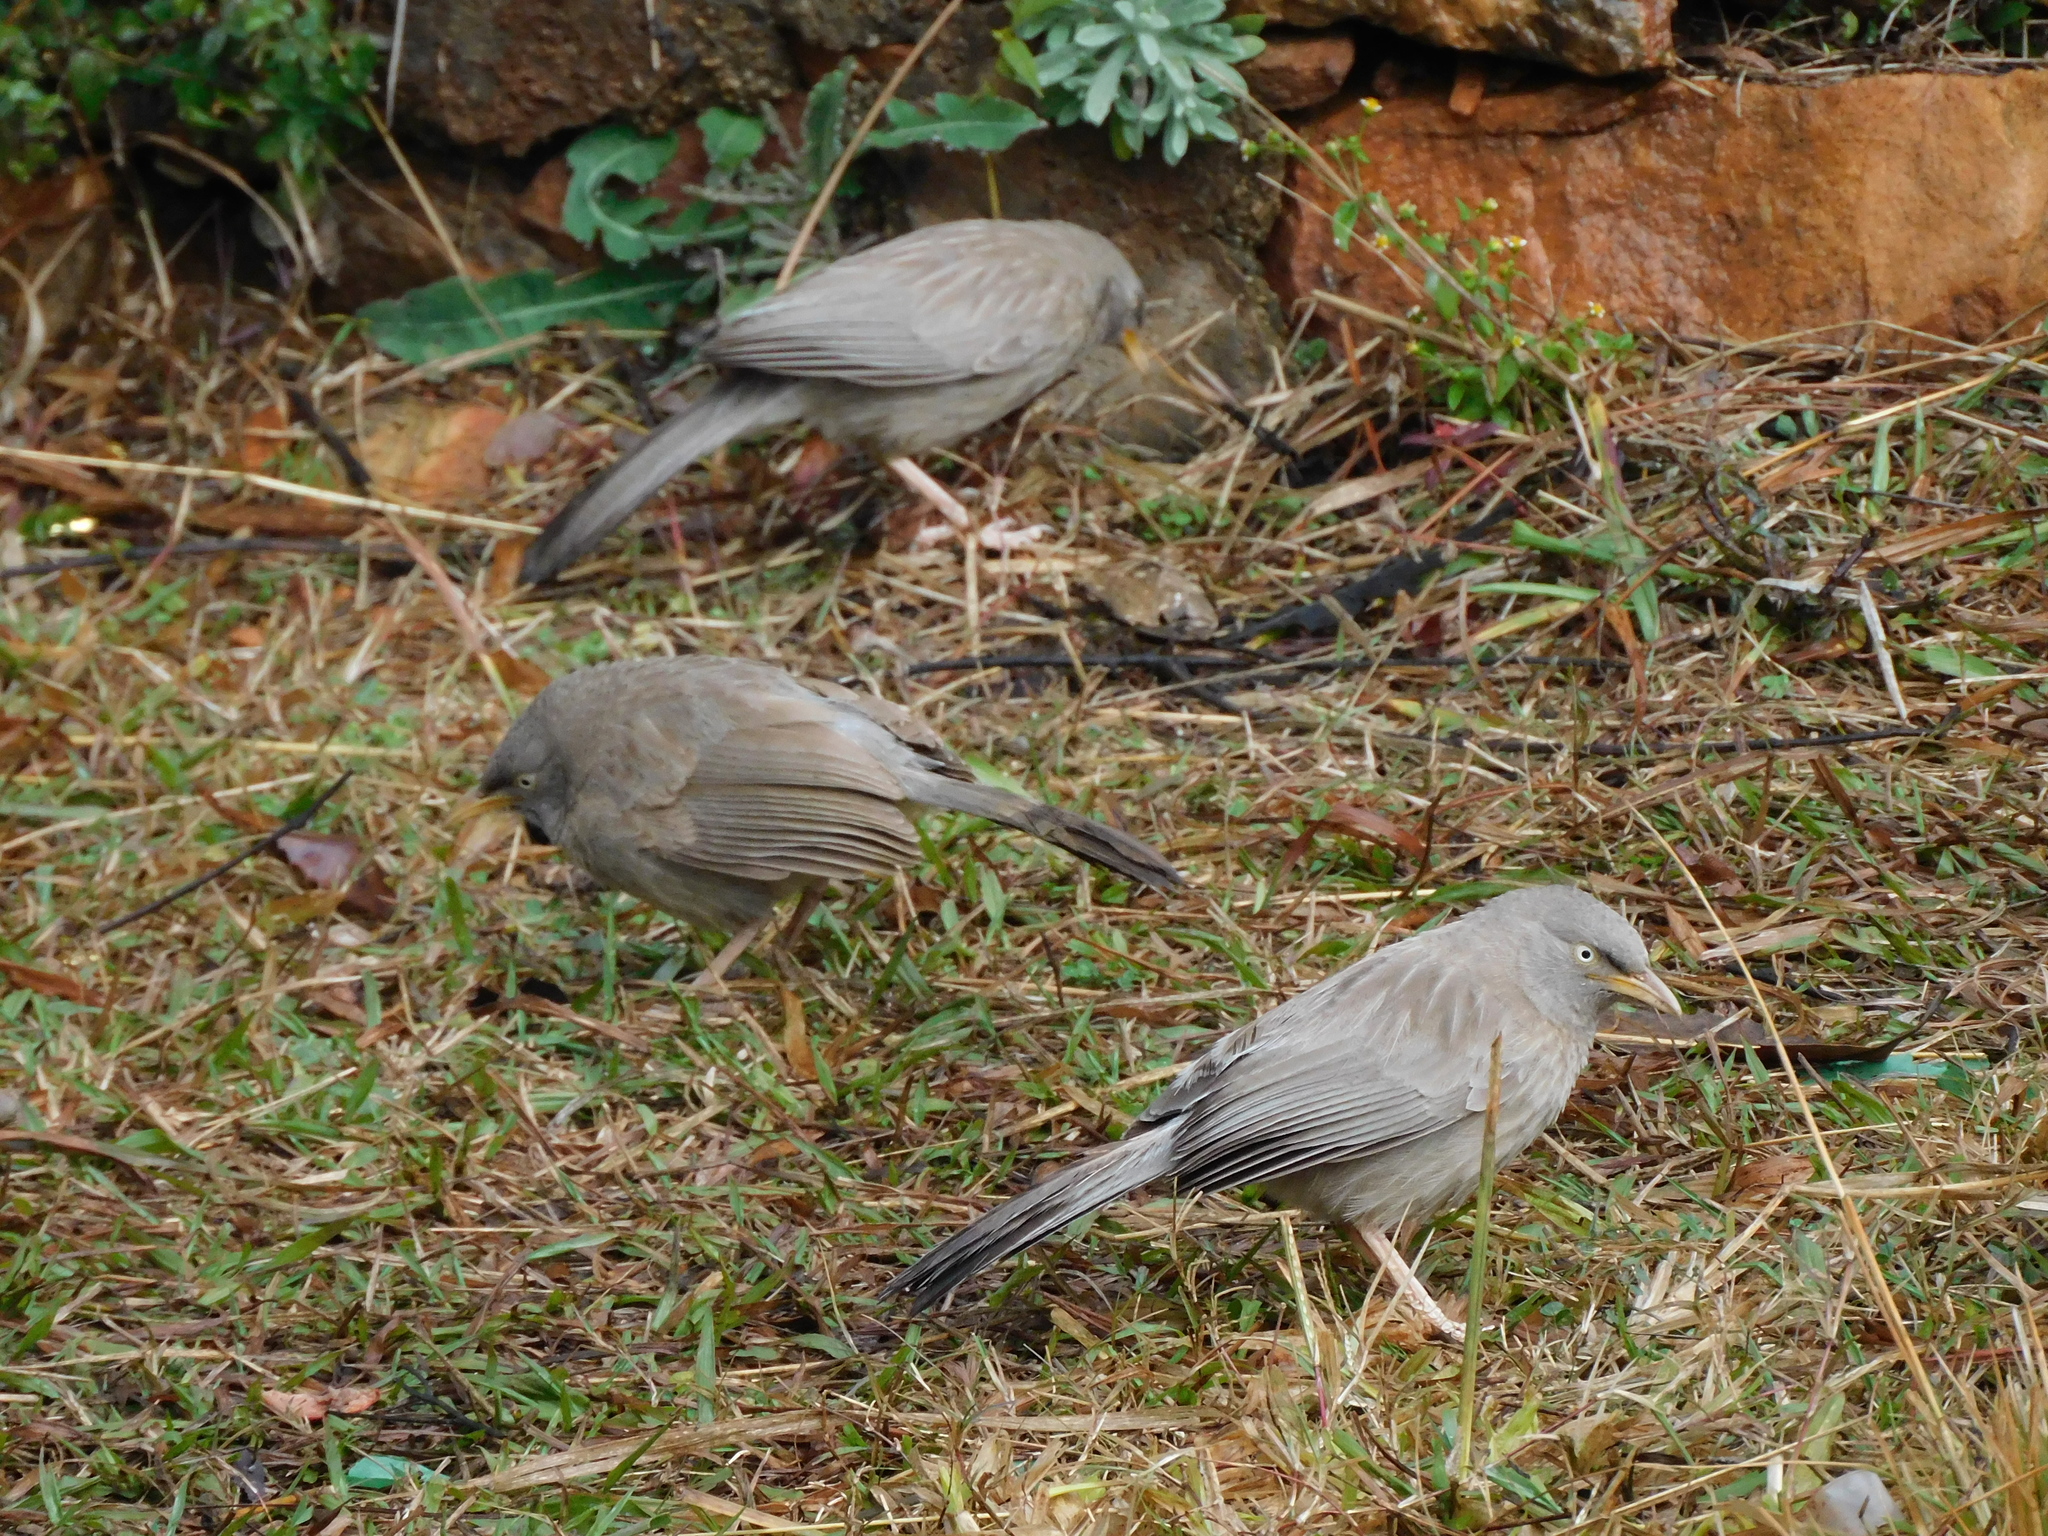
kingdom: Animalia
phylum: Chordata
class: Aves
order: Passeriformes
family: Leiothrichidae
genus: Turdoides
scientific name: Turdoides striata
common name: Jungle babbler
